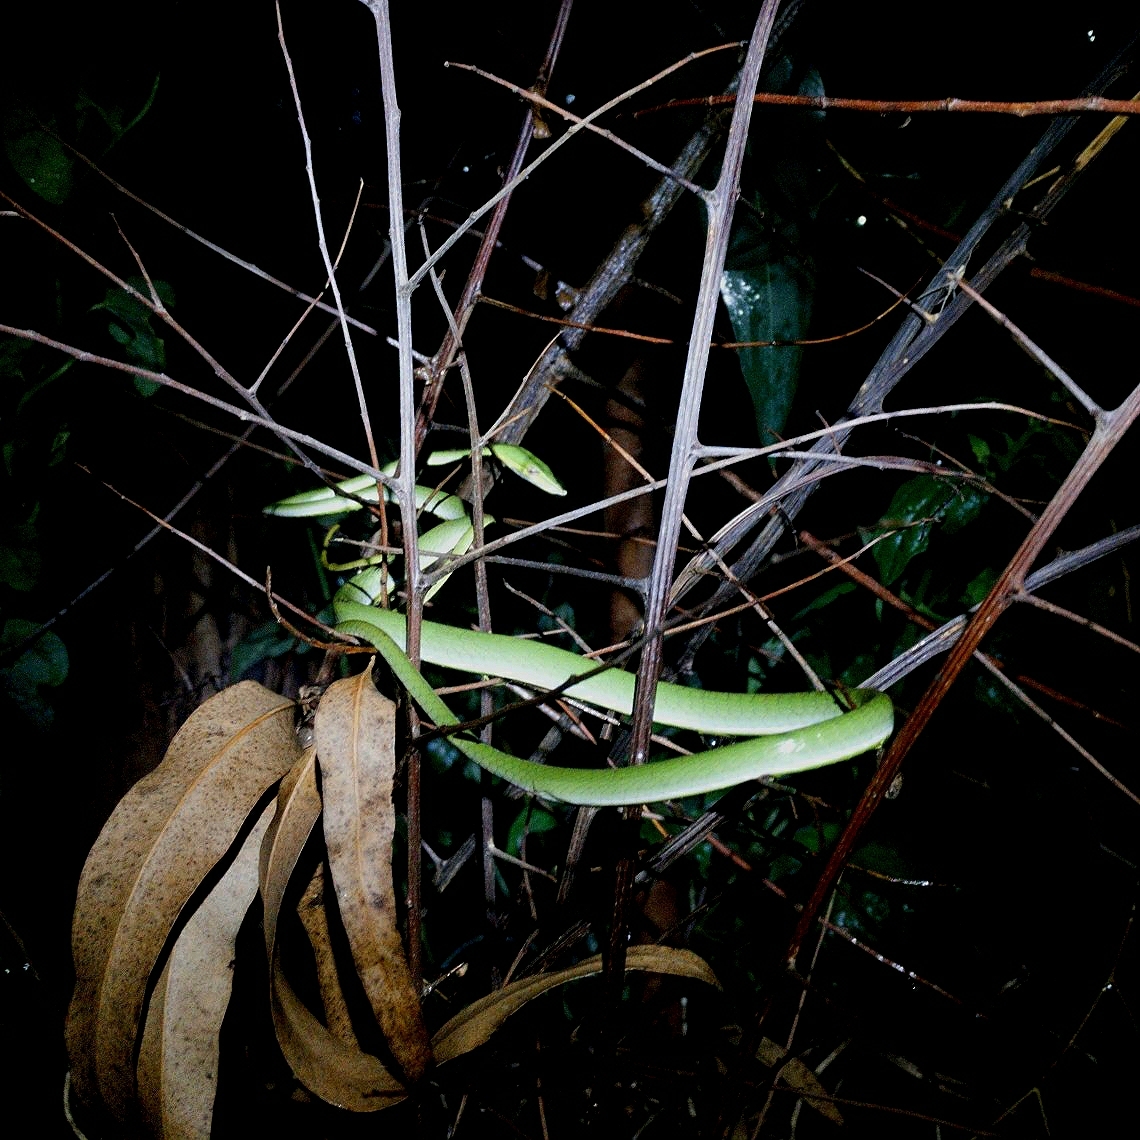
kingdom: Animalia
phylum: Chordata
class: Squamata
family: Colubridae
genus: Ahaetulla
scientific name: Ahaetulla oxyrhyncha
